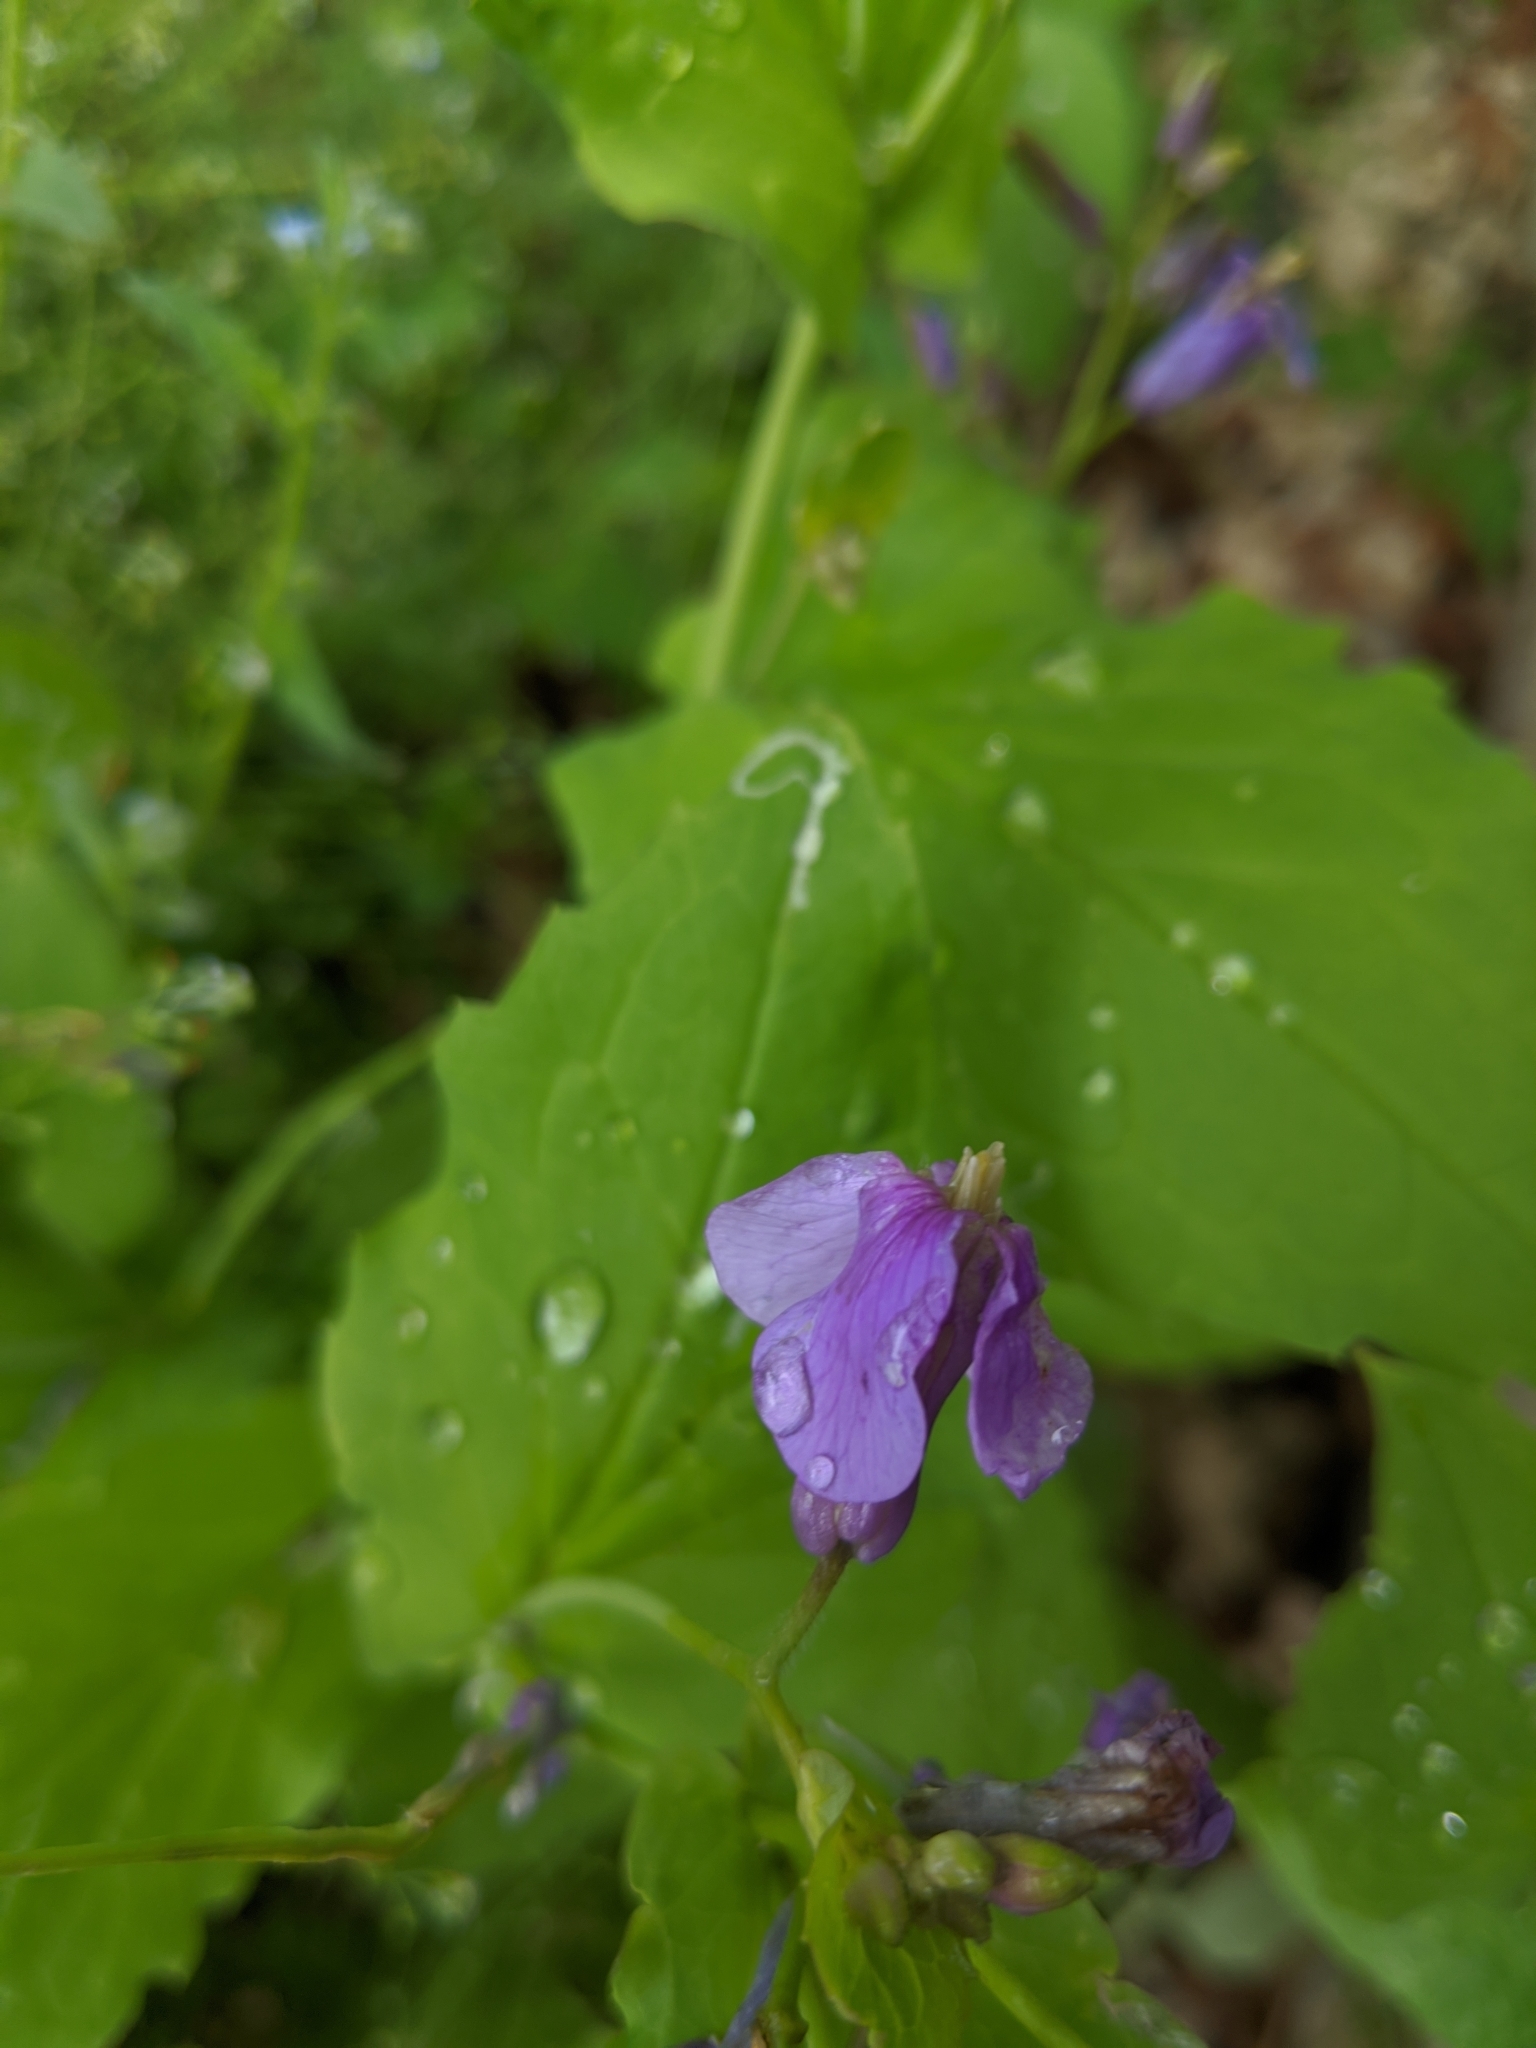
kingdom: Plantae
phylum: Tracheophyta
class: Magnoliopsida
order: Brassicales
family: Brassicaceae
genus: Orychophragmus
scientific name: Orychophragmus violaceus
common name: Mustard
